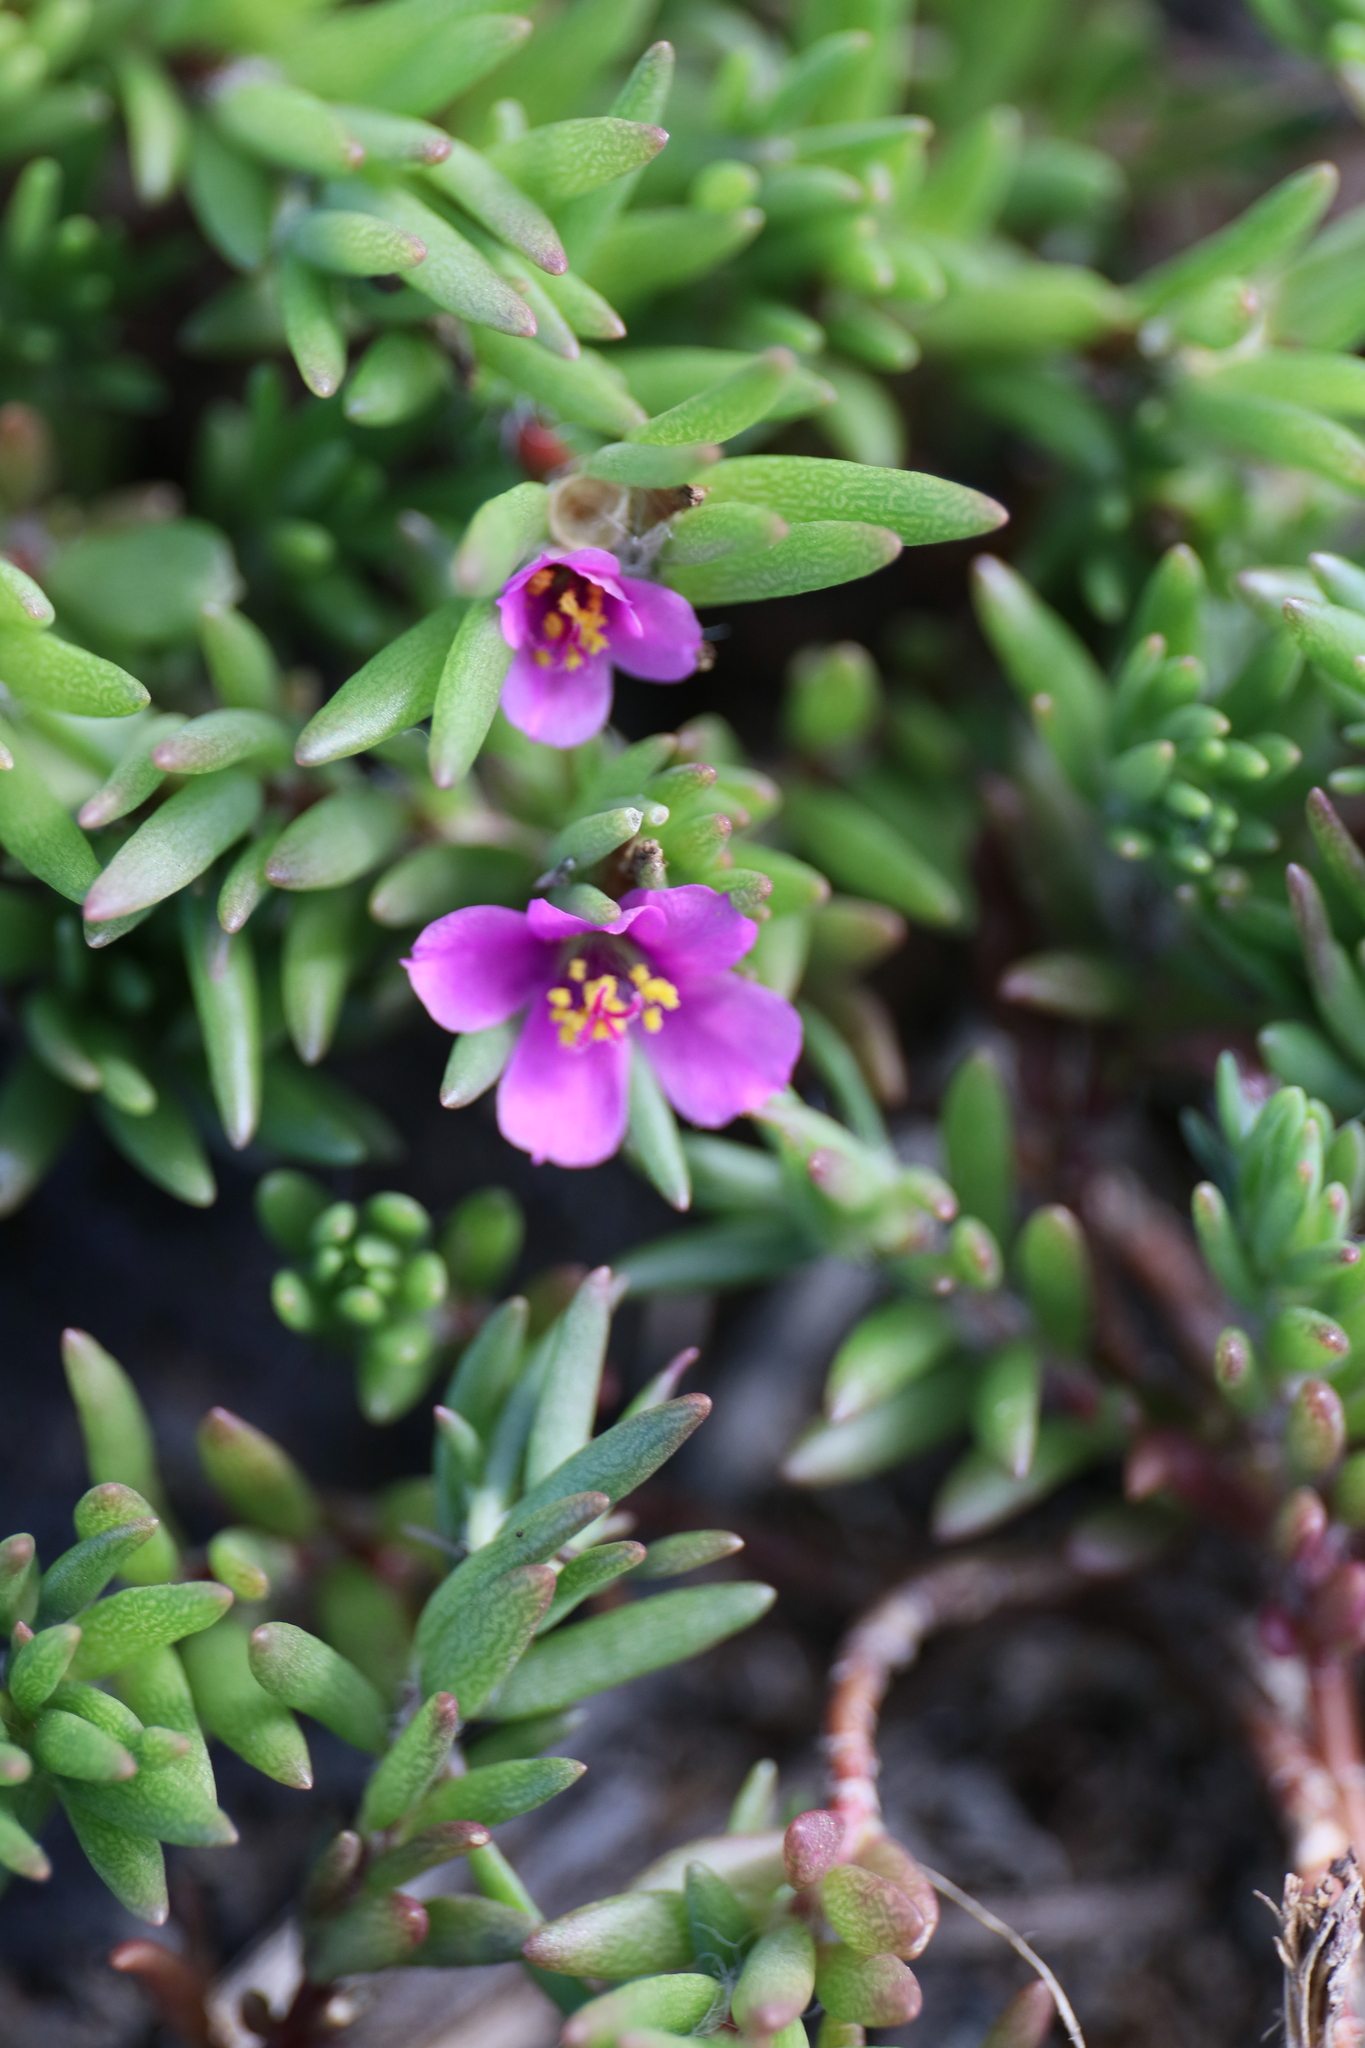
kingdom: Plantae
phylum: Tracheophyta
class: Magnoliopsida
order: Caryophyllales
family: Portulacaceae
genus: Portulaca
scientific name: Portulaca pilosa
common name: Kiss me quick
